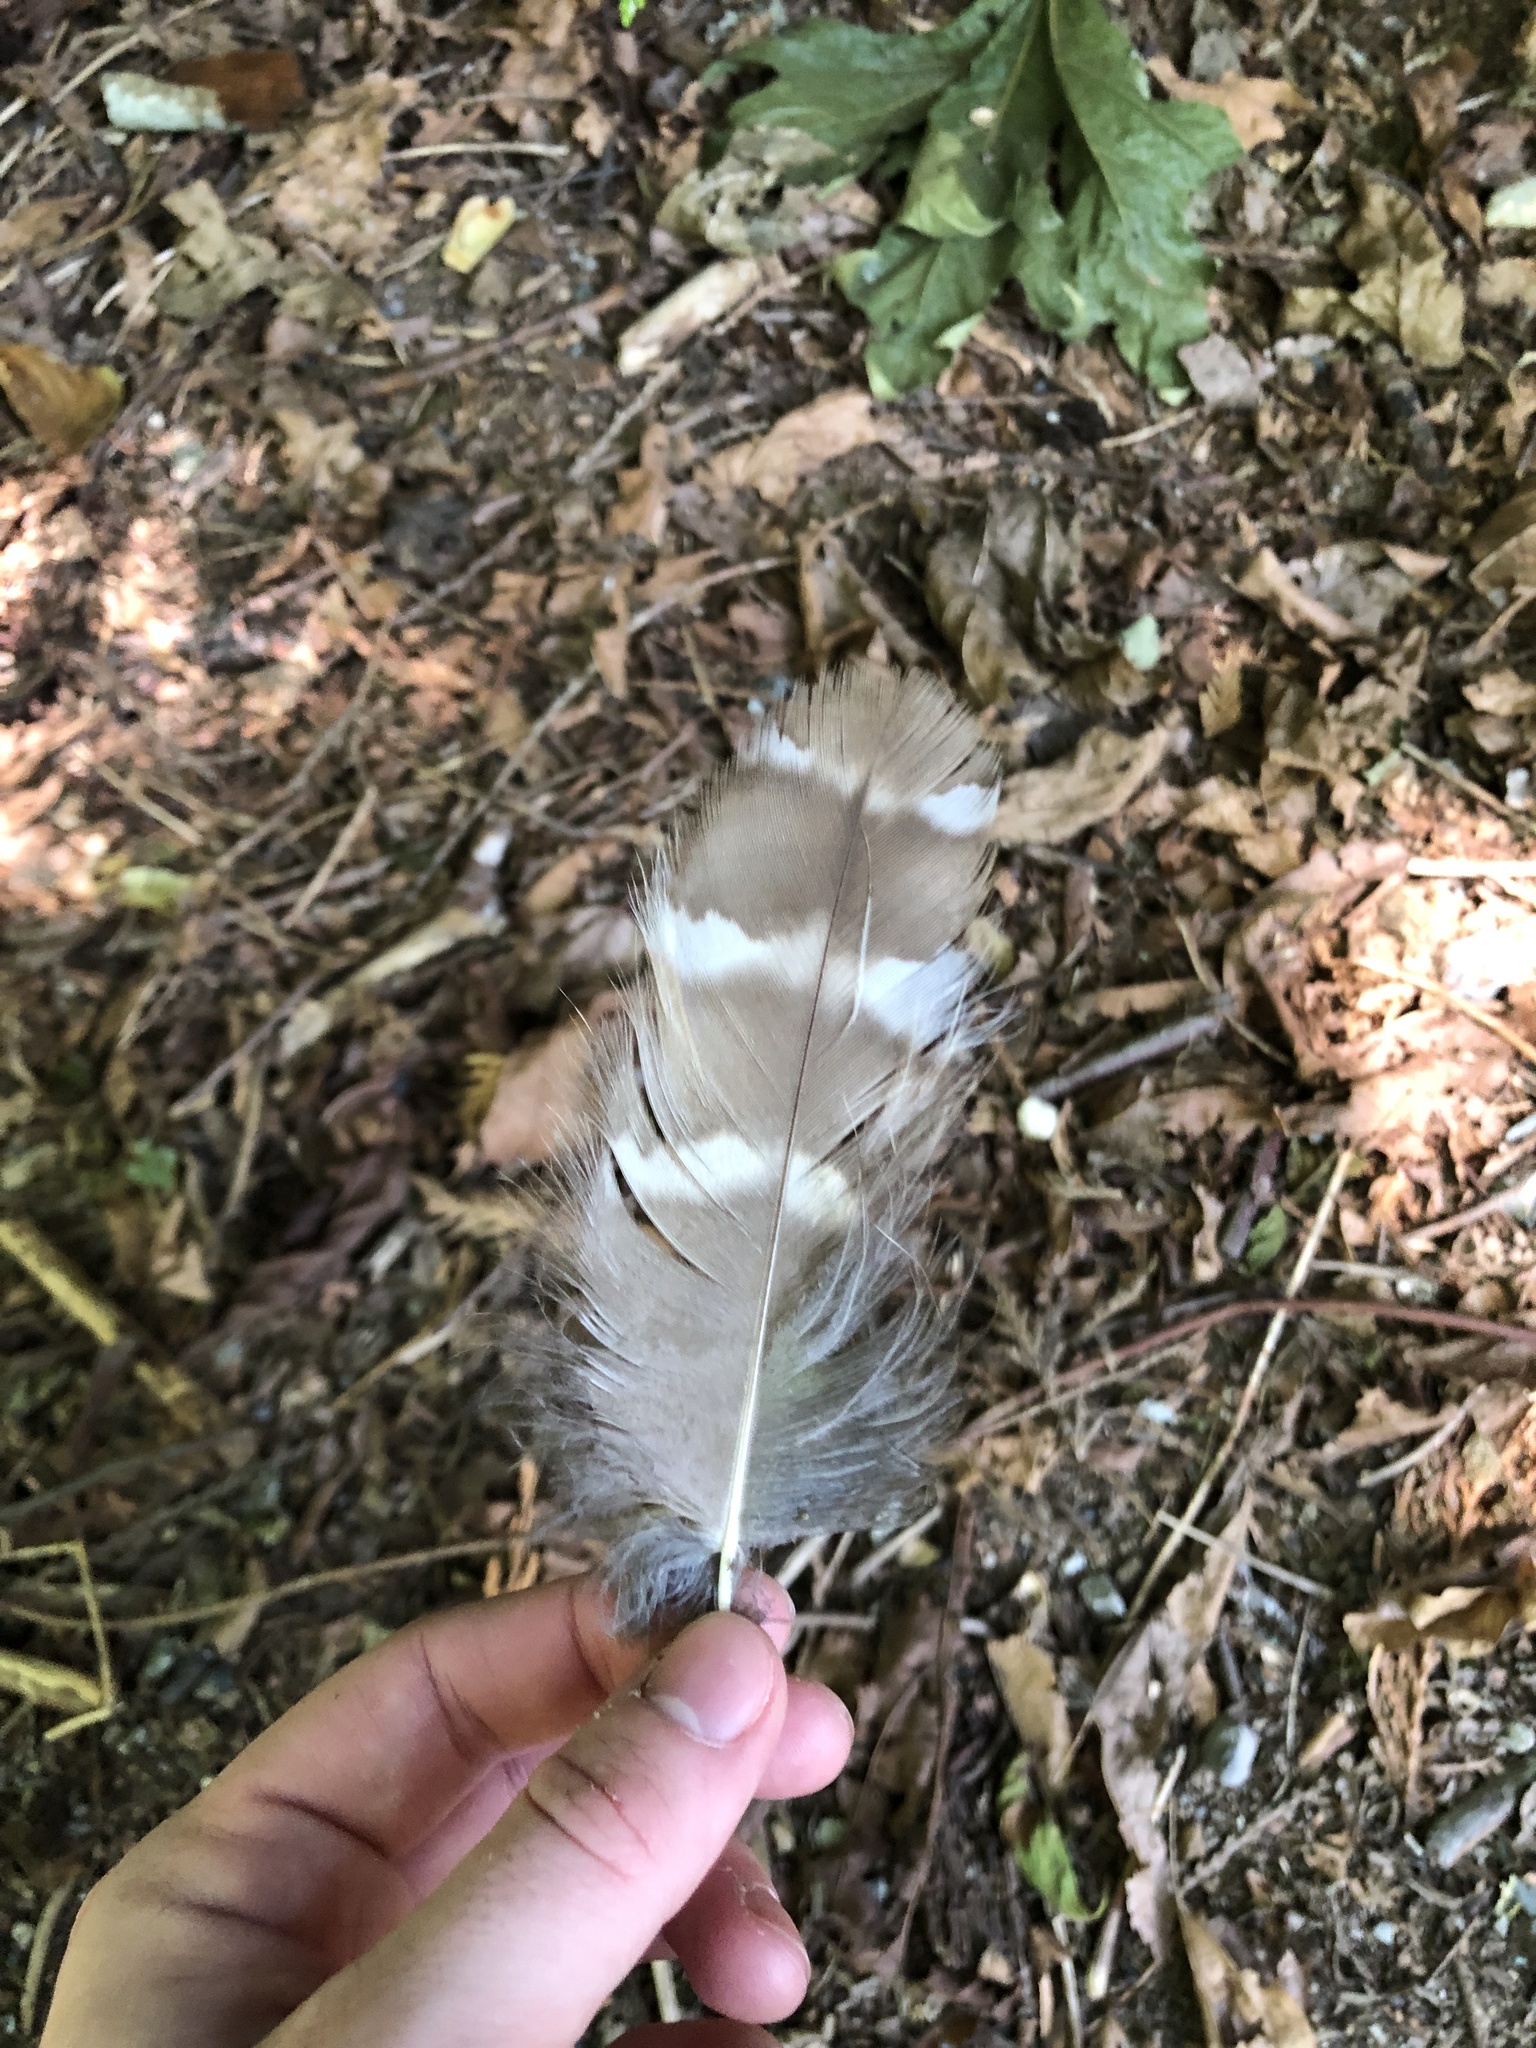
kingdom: Animalia
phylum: Chordata
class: Aves
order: Strigiformes
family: Strigidae
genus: Strix
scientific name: Strix varia
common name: Barred owl
